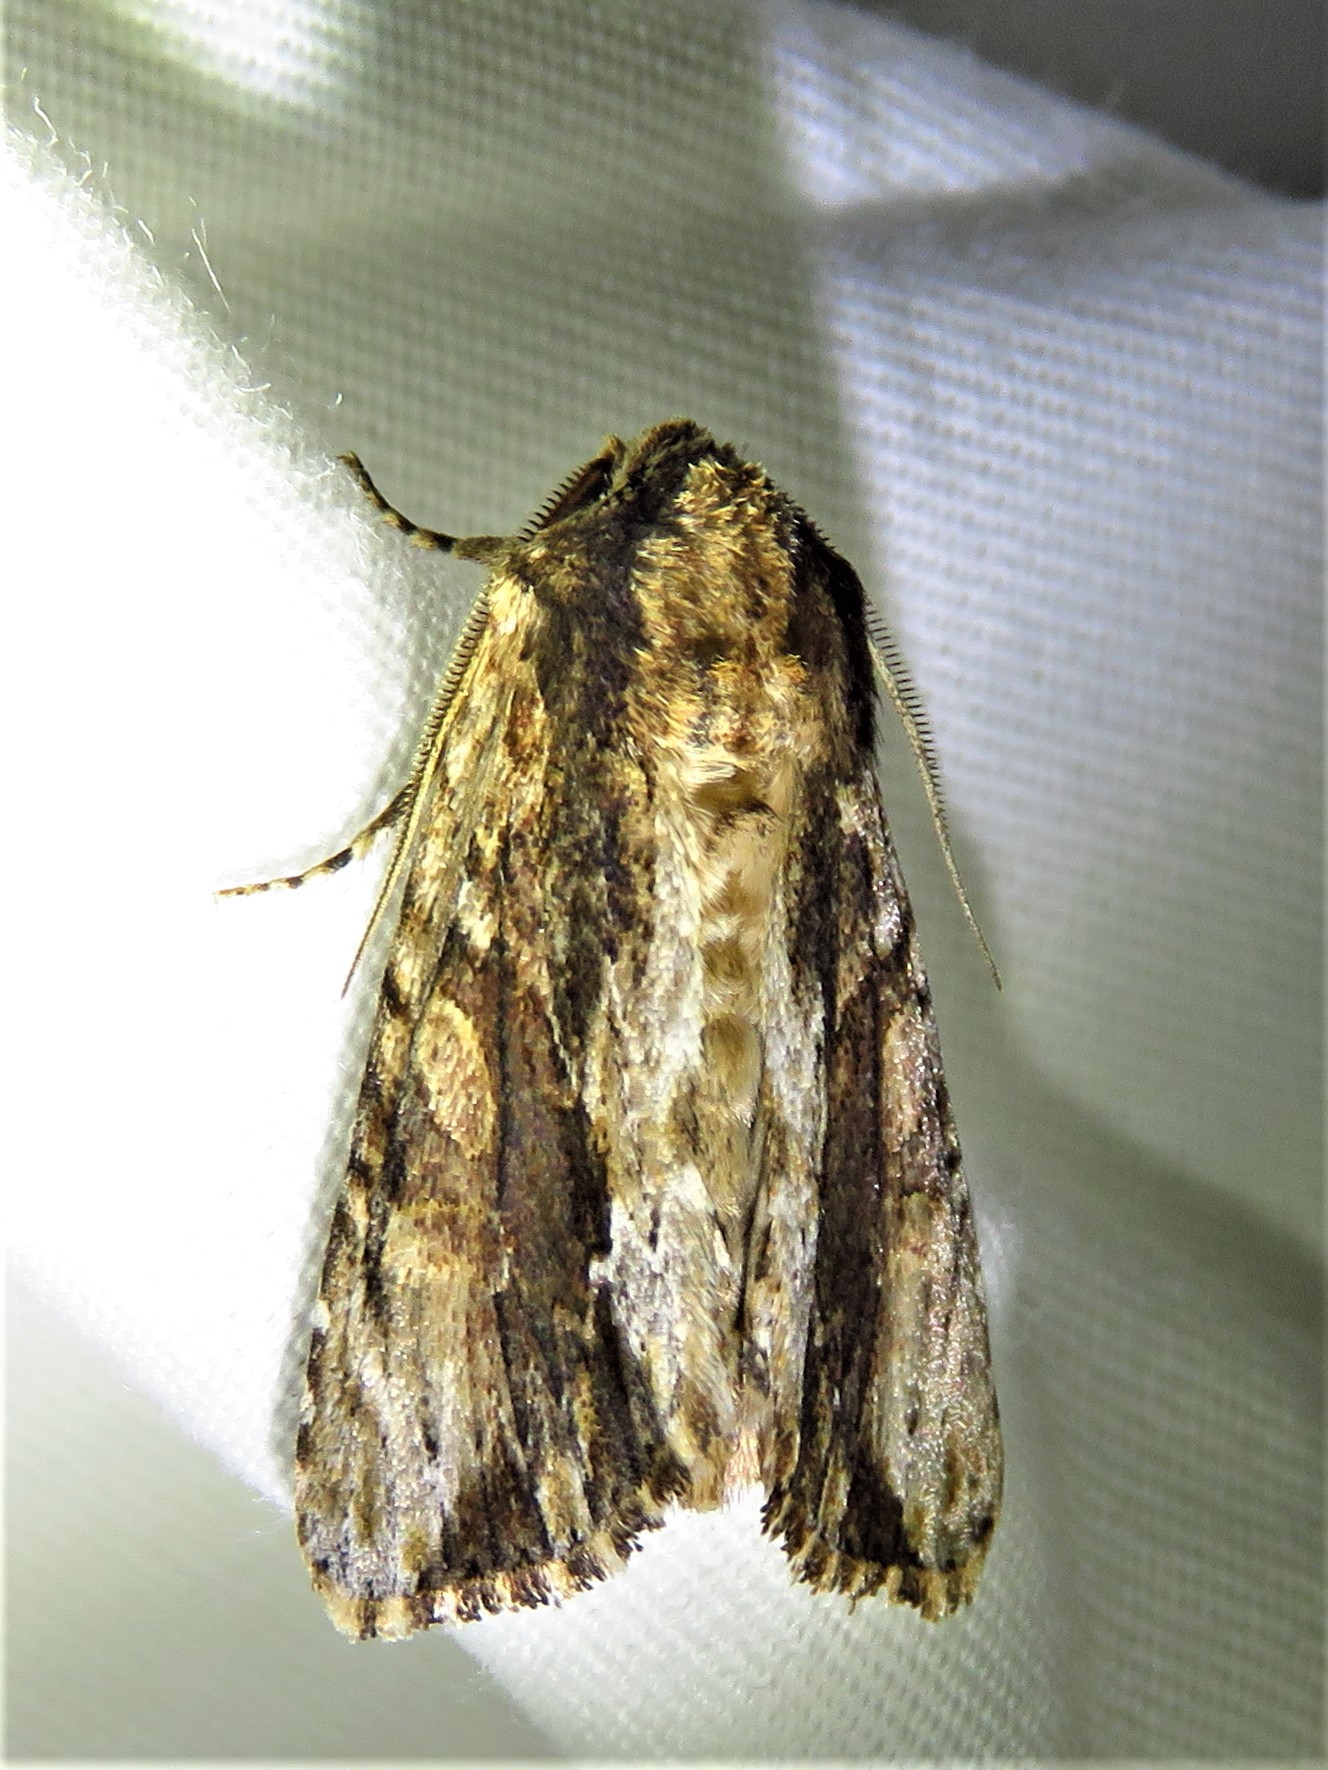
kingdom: Animalia
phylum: Arthropoda
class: Insecta
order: Lepidoptera
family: Noctuidae
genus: Achatia
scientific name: Achatia mucens
